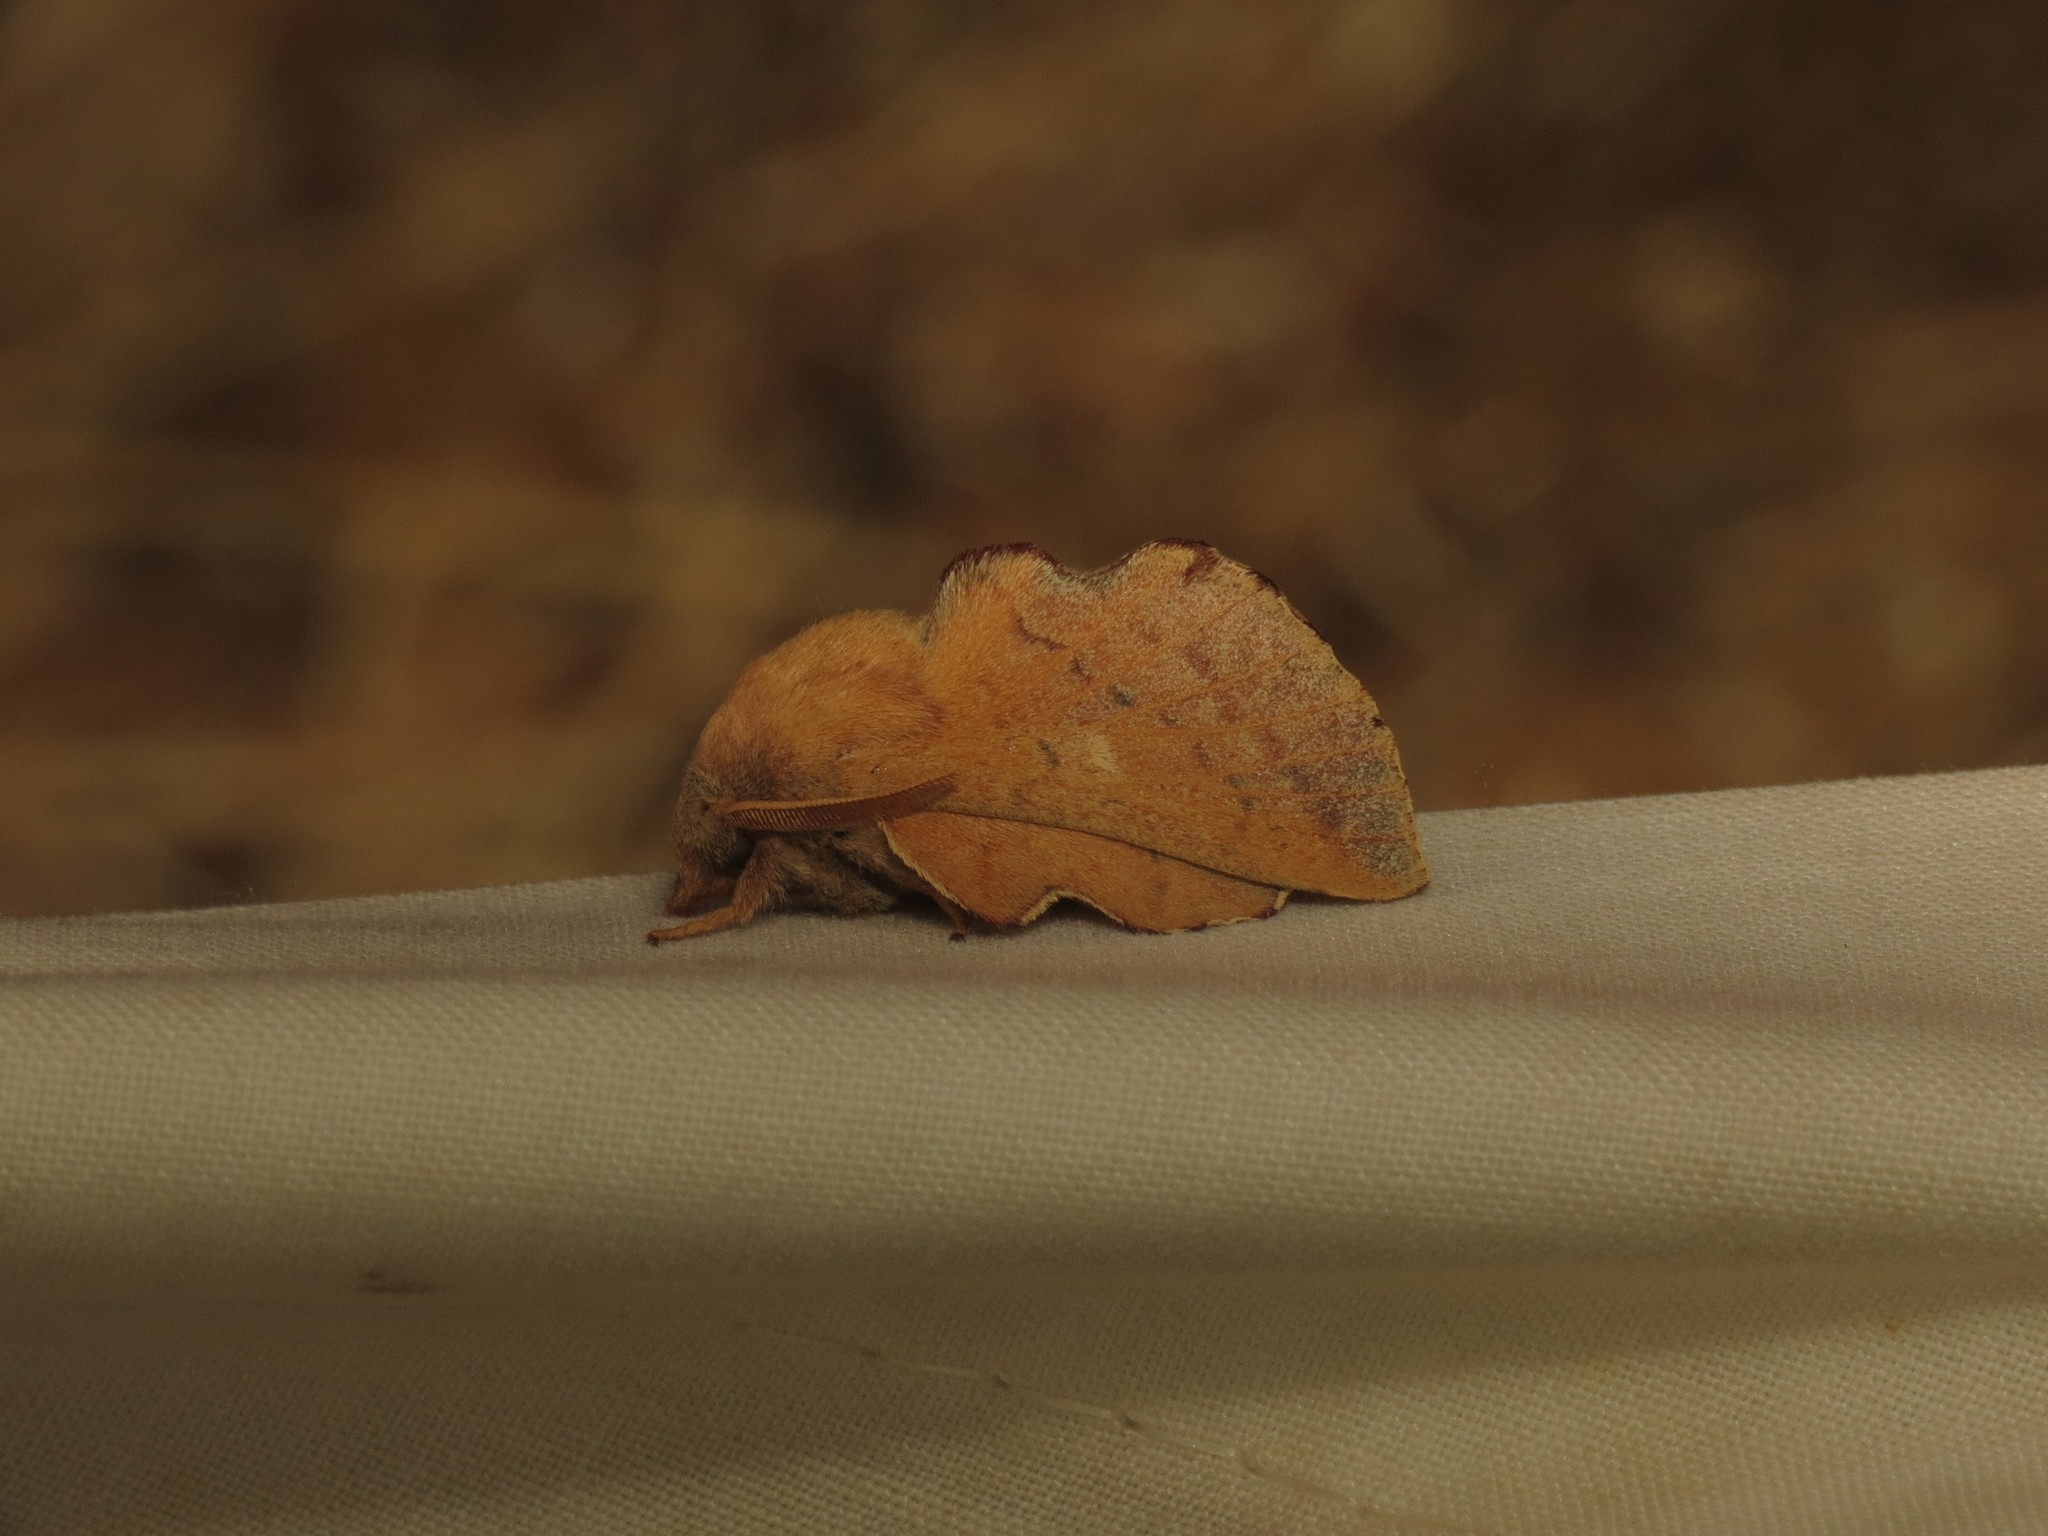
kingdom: Animalia
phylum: Arthropoda
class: Insecta
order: Lepidoptera
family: Lasiocampidae
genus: Phyllodesma
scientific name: Phyllodesma americana
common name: American lappet moth
